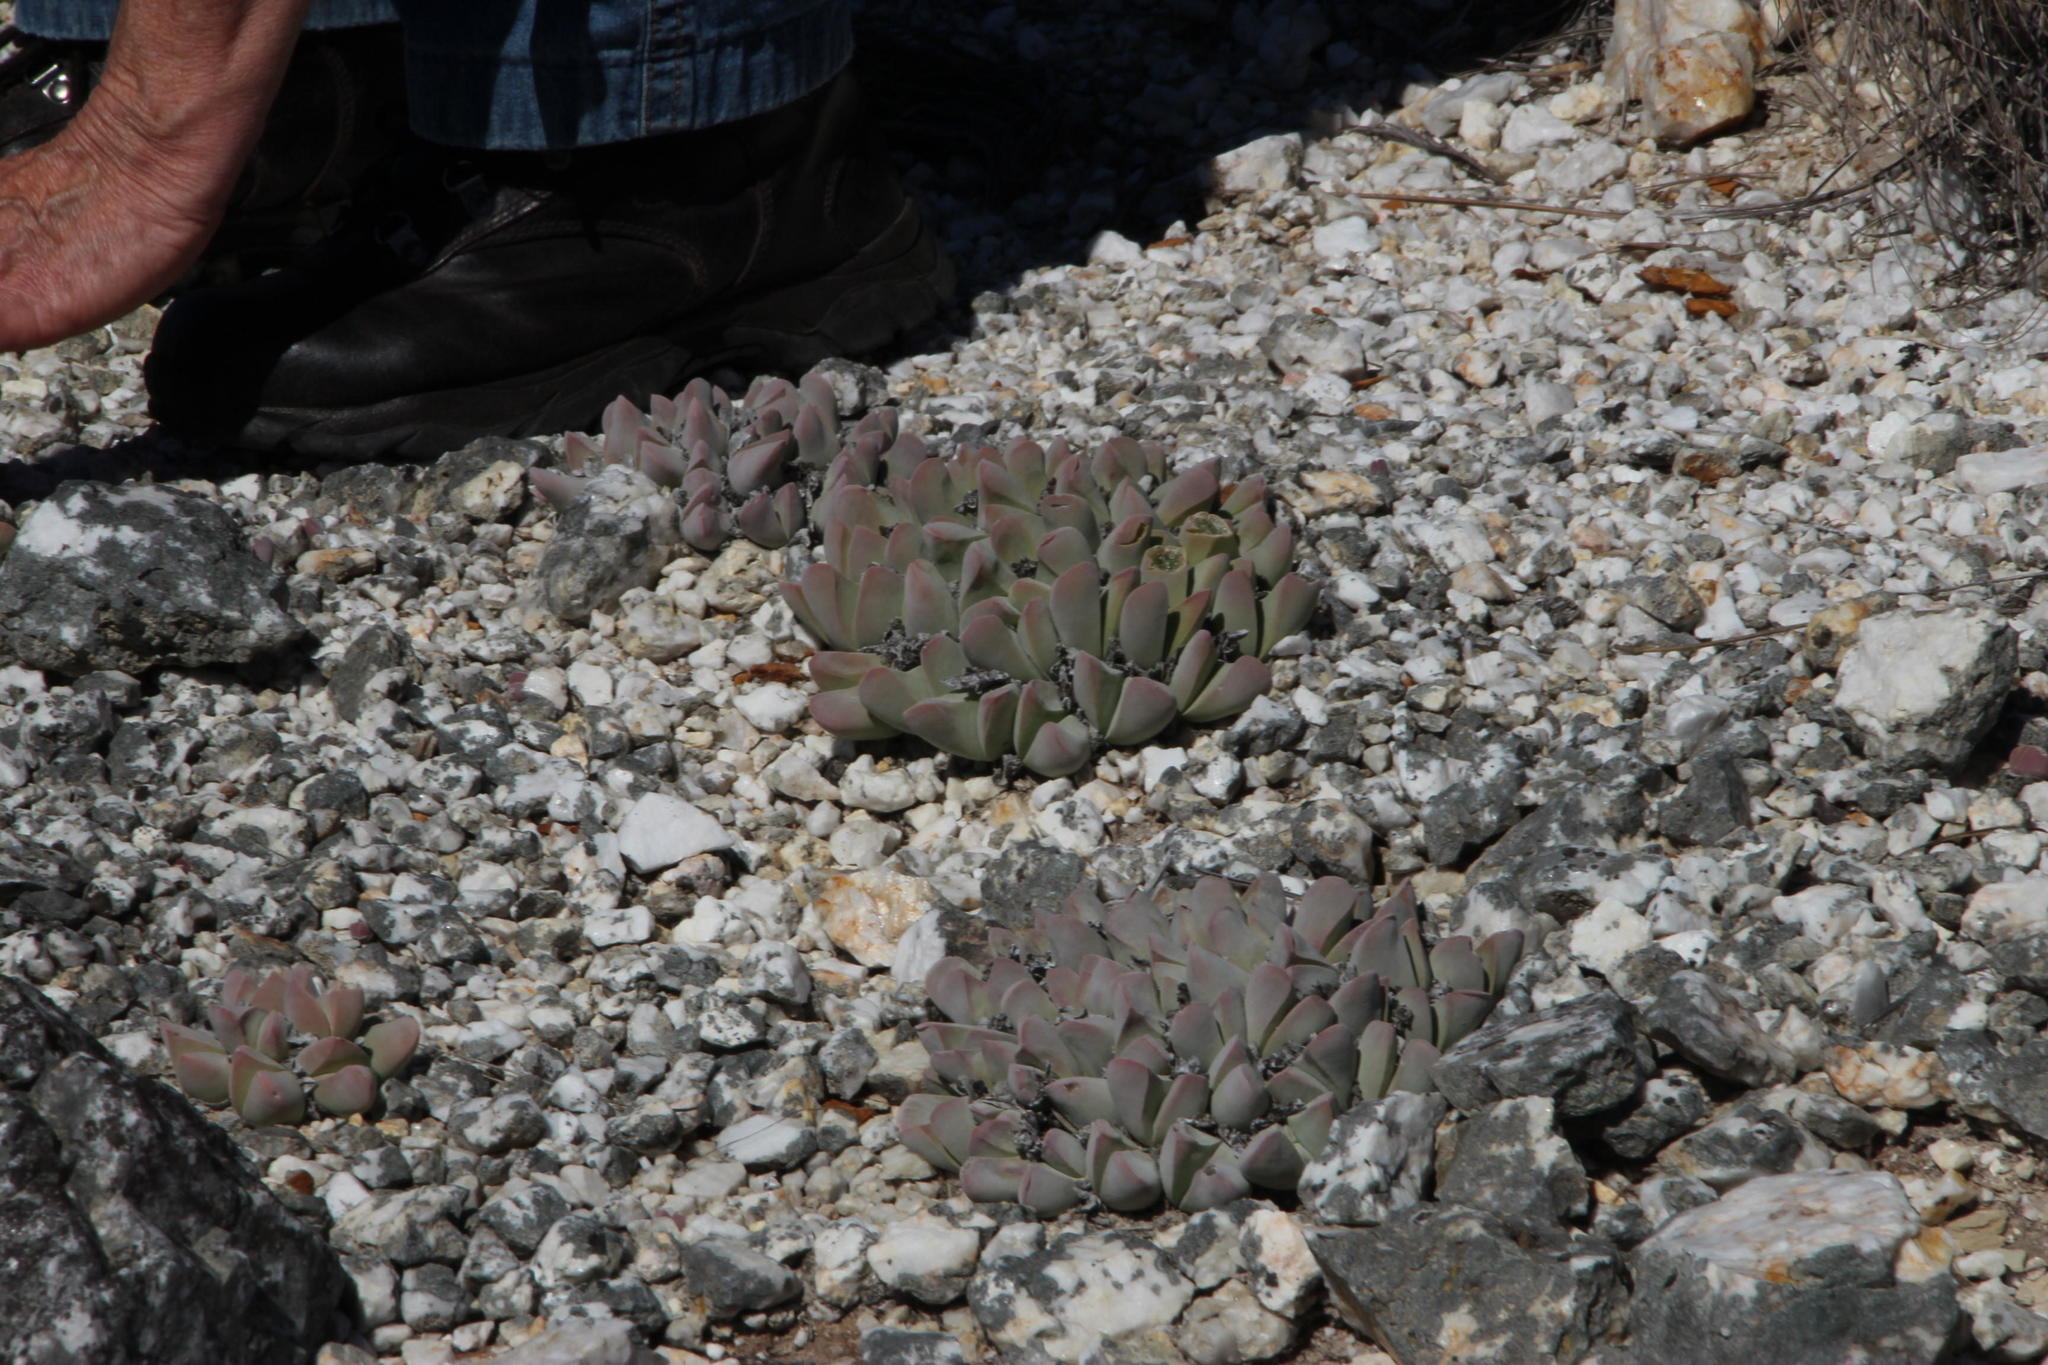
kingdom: Plantae
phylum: Tracheophyta
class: Magnoliopsida
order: Caryophyllales
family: Aizoaceae
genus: Gibbaeum
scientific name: Gibbaeum hartmannianum
